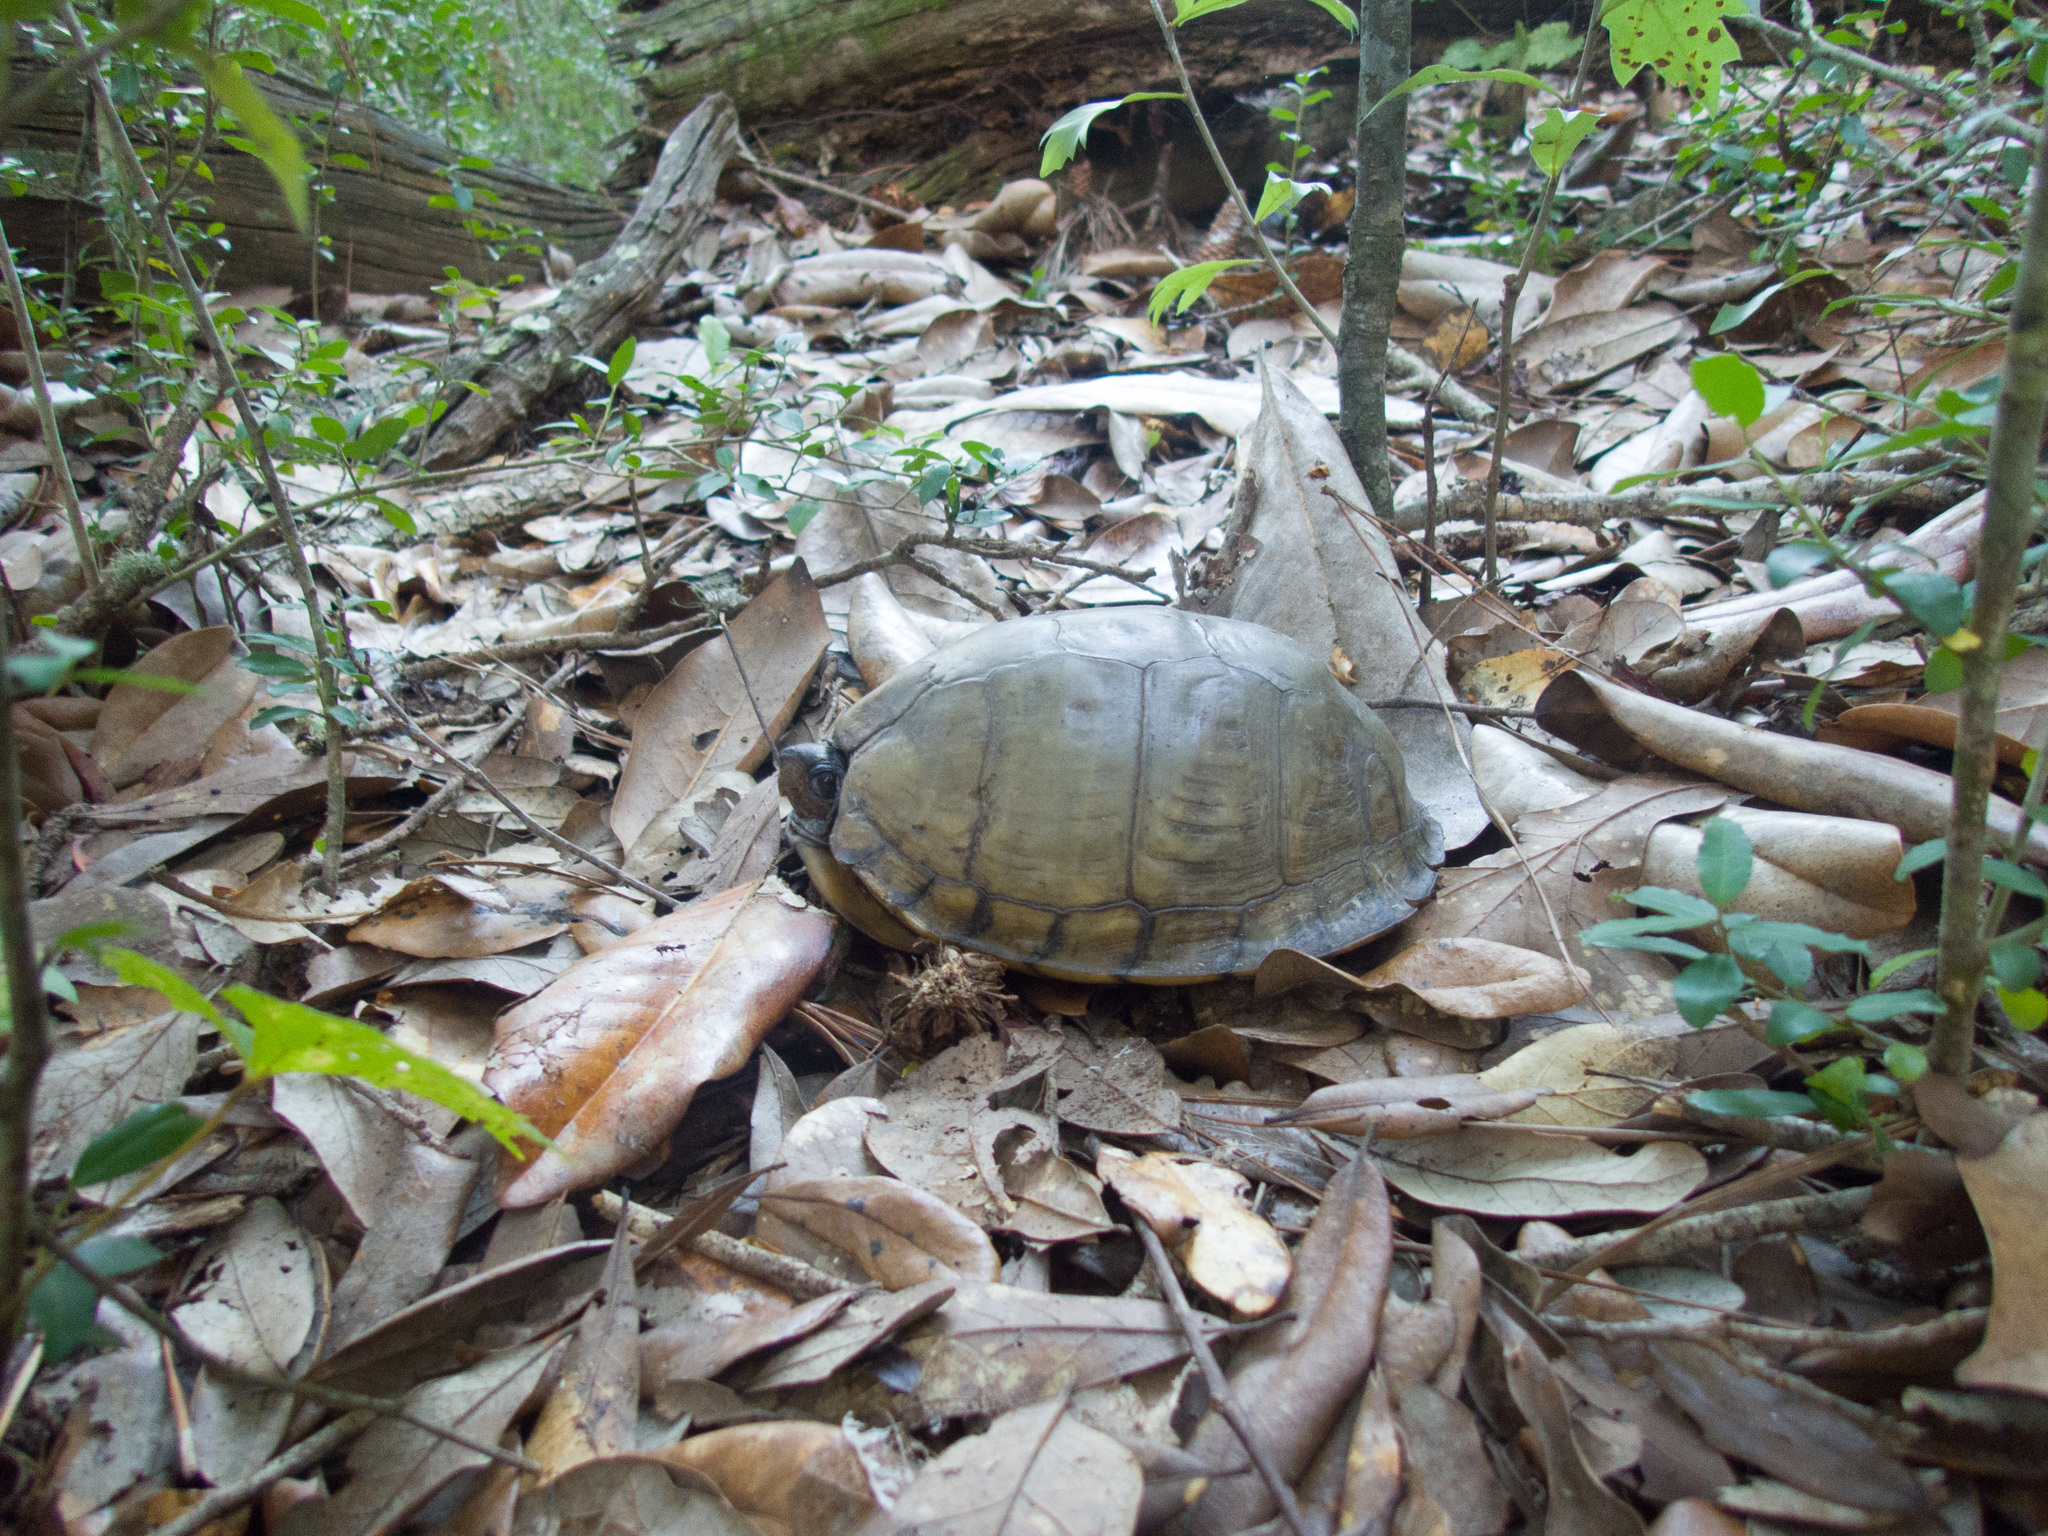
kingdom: Animalia
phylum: Chordata
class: Testudines
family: Emydidae
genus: Terrapene
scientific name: Terrapene carolina
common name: Common box turtle
